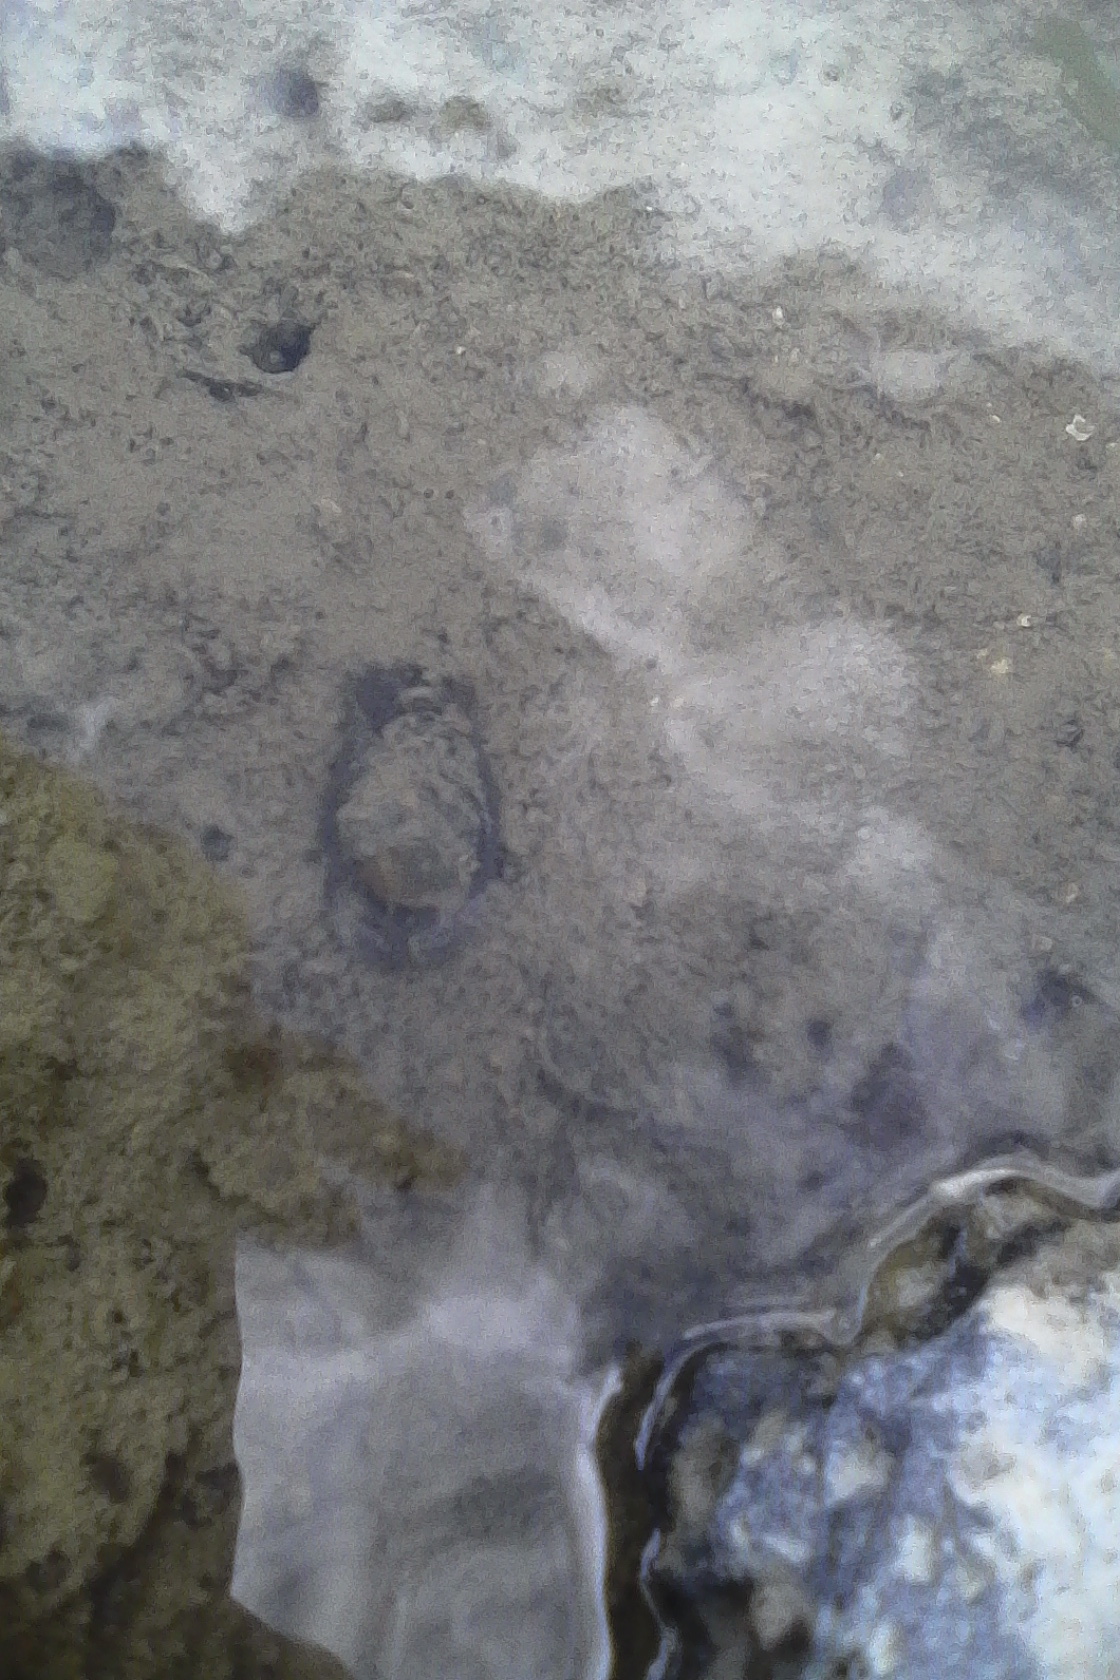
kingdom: Animalia
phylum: Mollusca
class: Gastropoda
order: Cephalaspidea
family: Haminoeidae
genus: Papawera
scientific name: Papawera zelandiae
